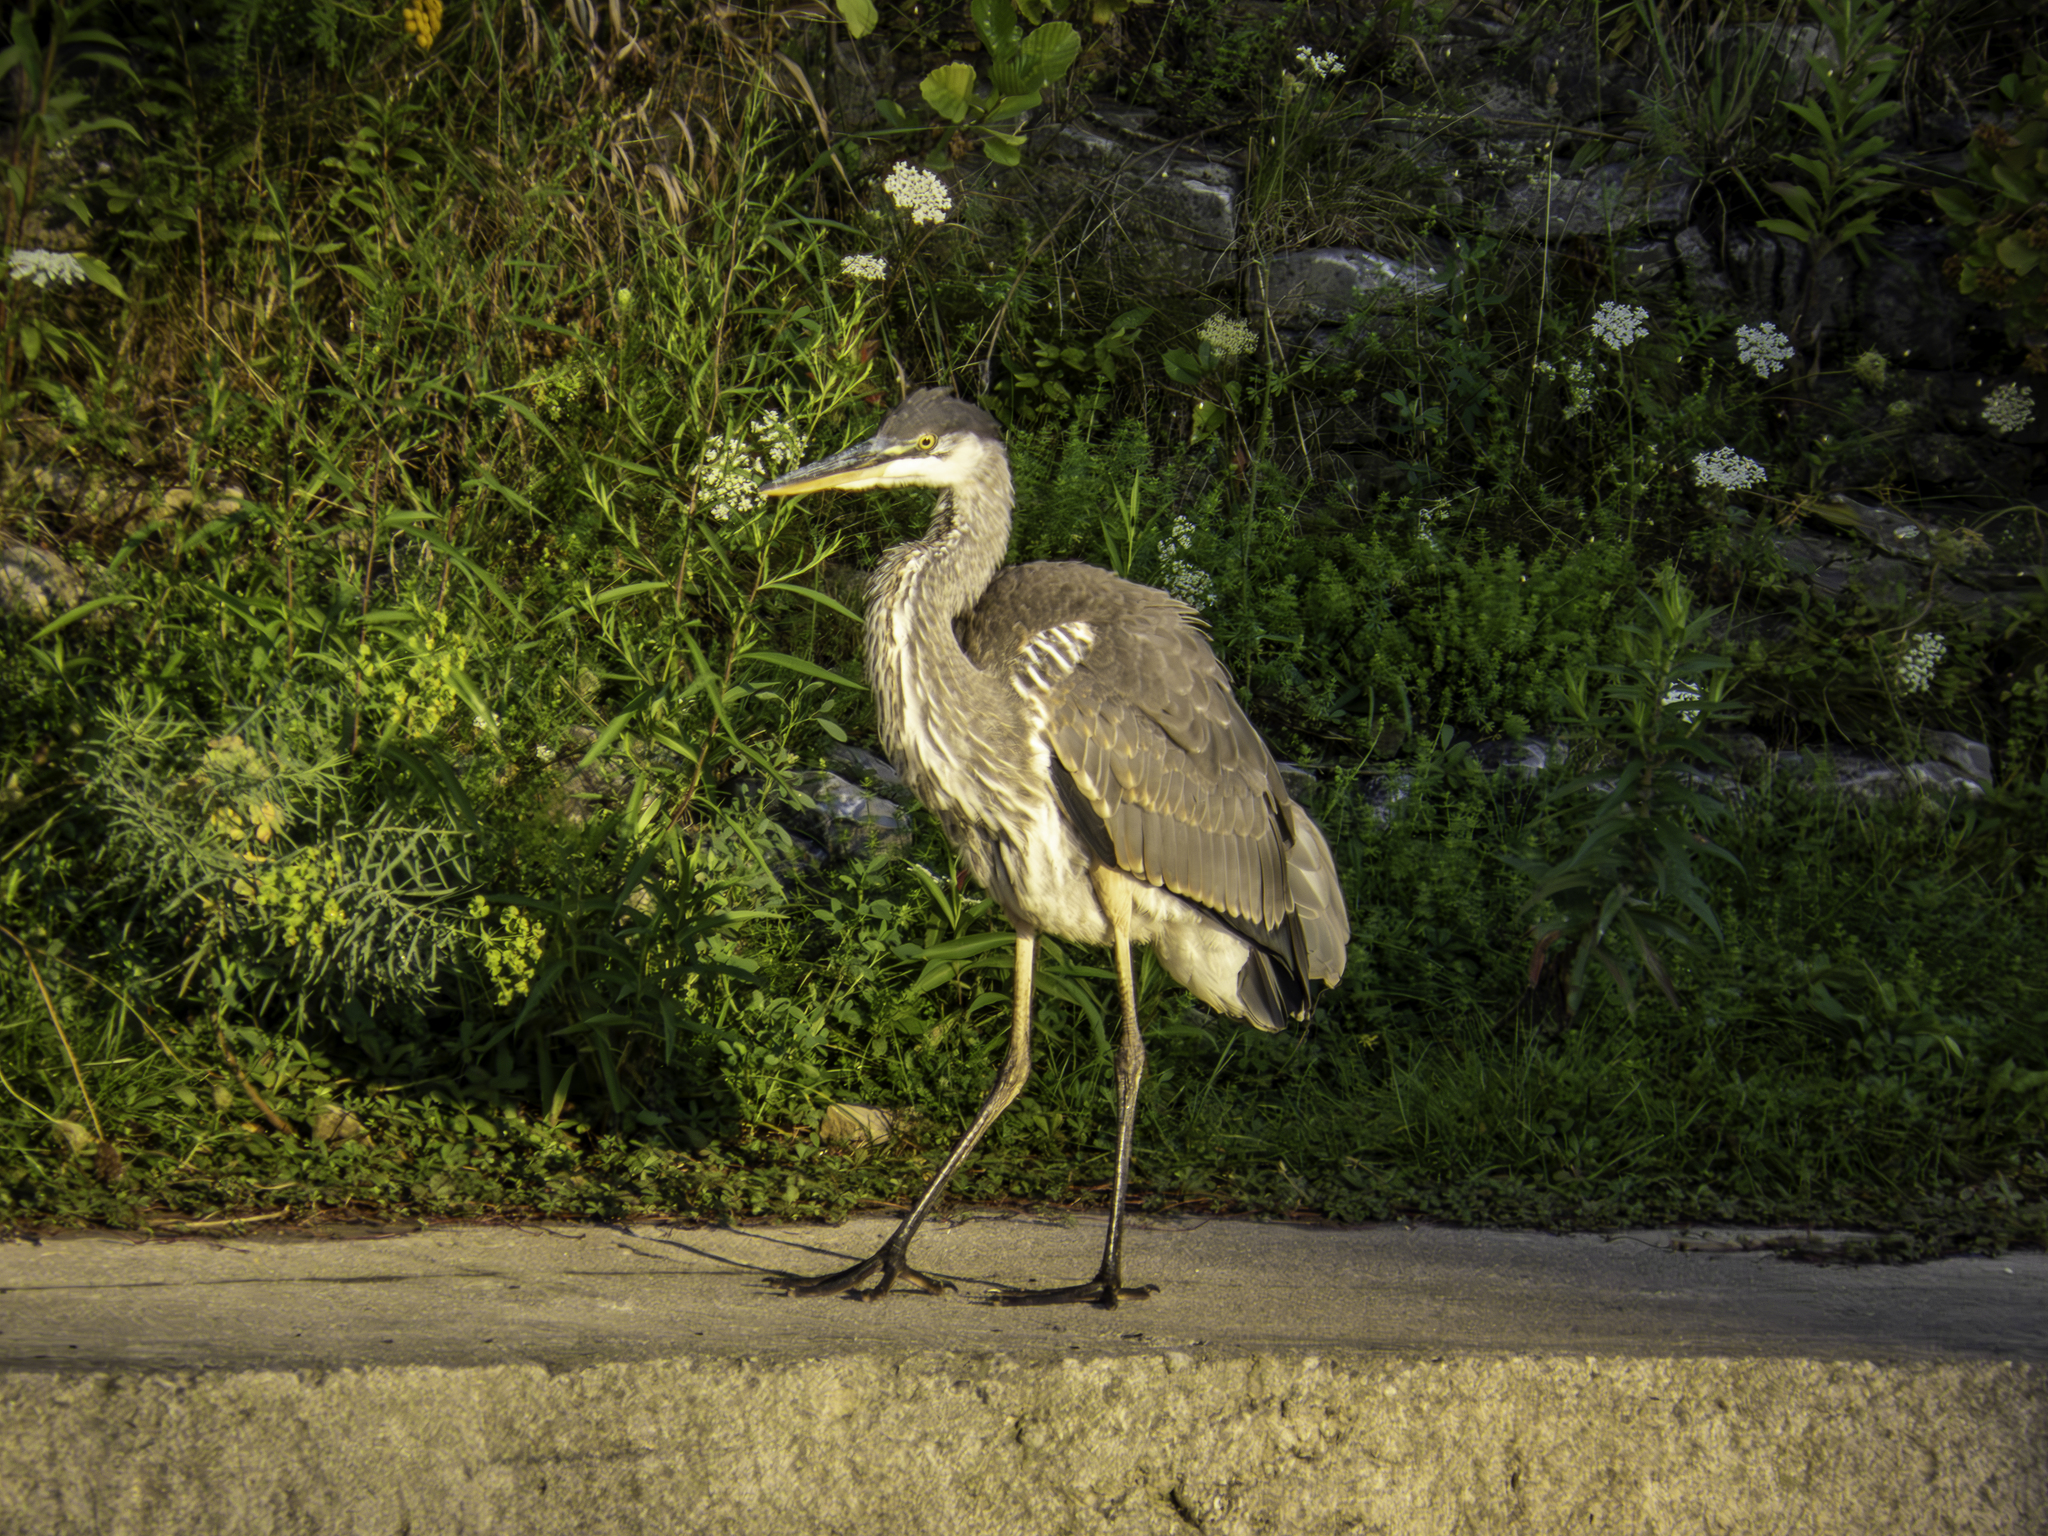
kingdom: Animalia
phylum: Chordata
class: Aves
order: Pelecaniformes
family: Ardeidae
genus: Ardea
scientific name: Ardea herodias
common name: Great blue heron
